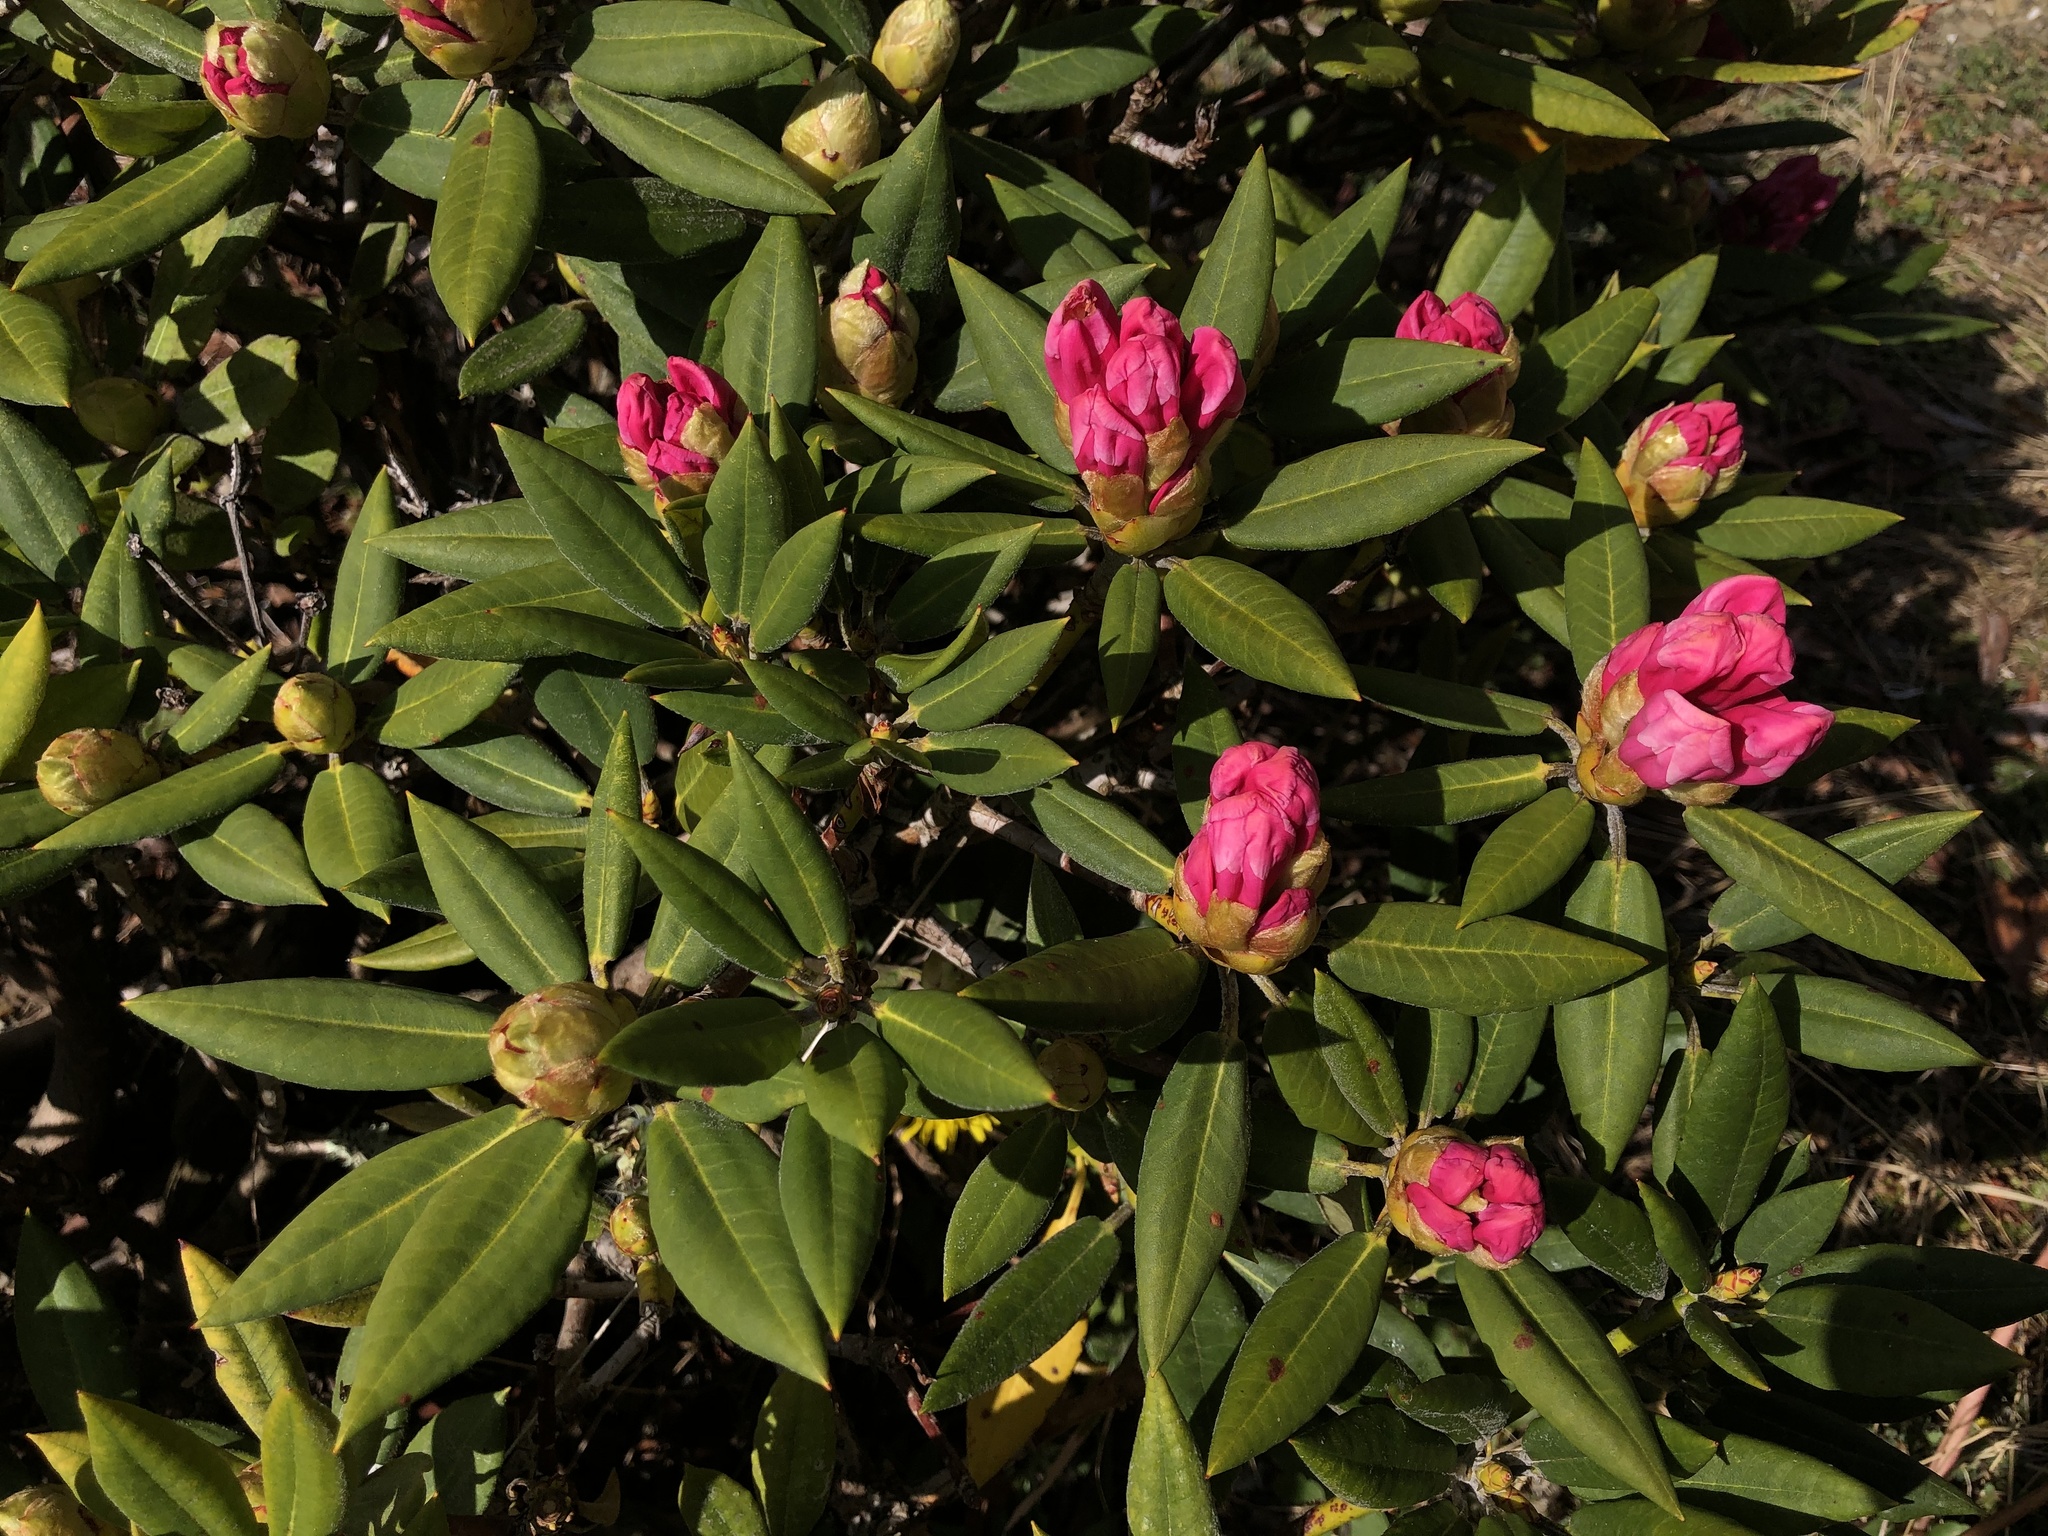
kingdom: Plantae
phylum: Tracheophyta
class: Magnoliopsida
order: Ericales
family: Ericaceae
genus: Rhododendron
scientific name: Rhododendron pseudochrysanthum
